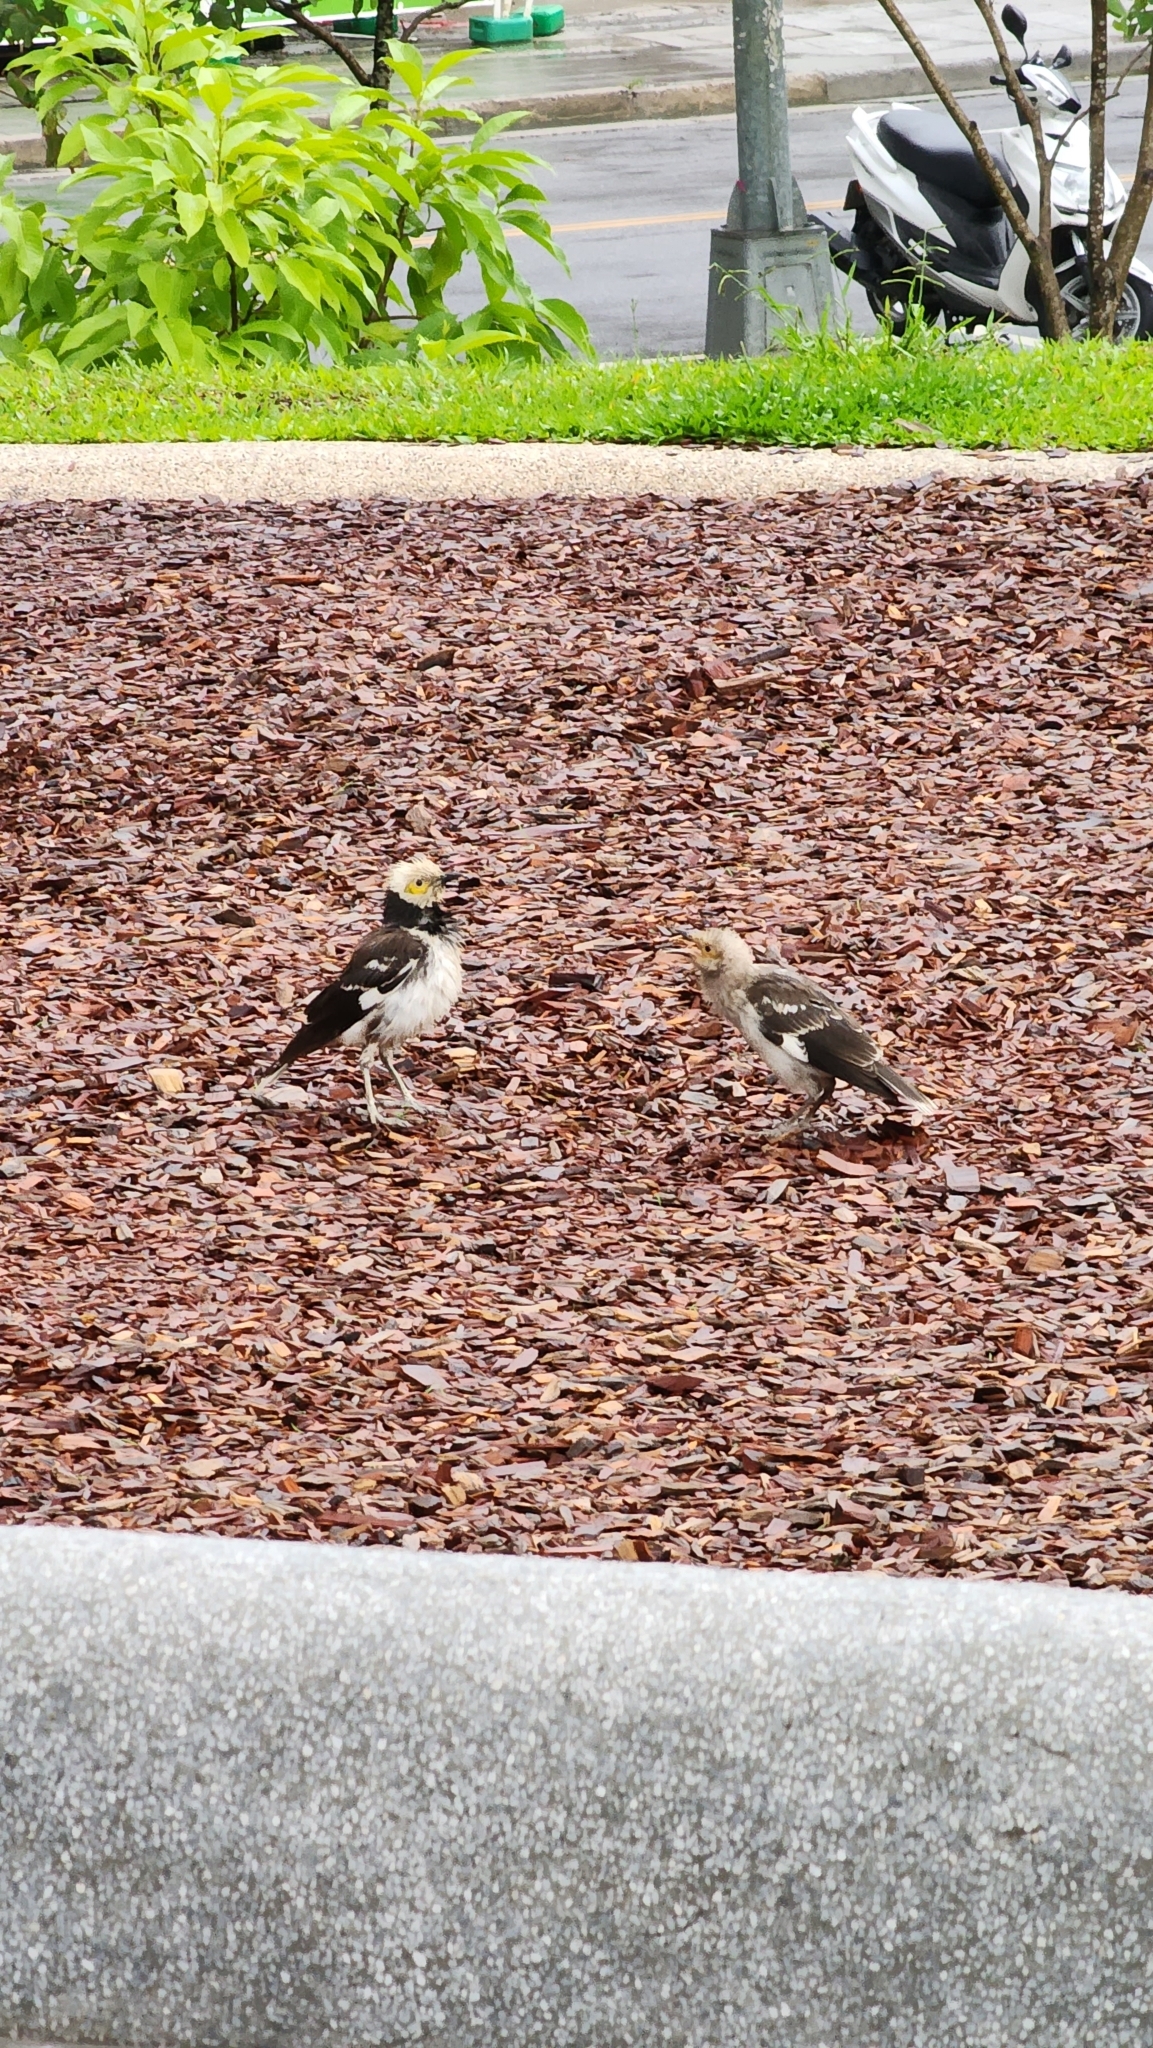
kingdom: Animalia
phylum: Chordata
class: Aves
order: Passeriformes
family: Sturnidae
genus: Gracupica
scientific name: Gracupica nigricollis
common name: Black-collared starling
